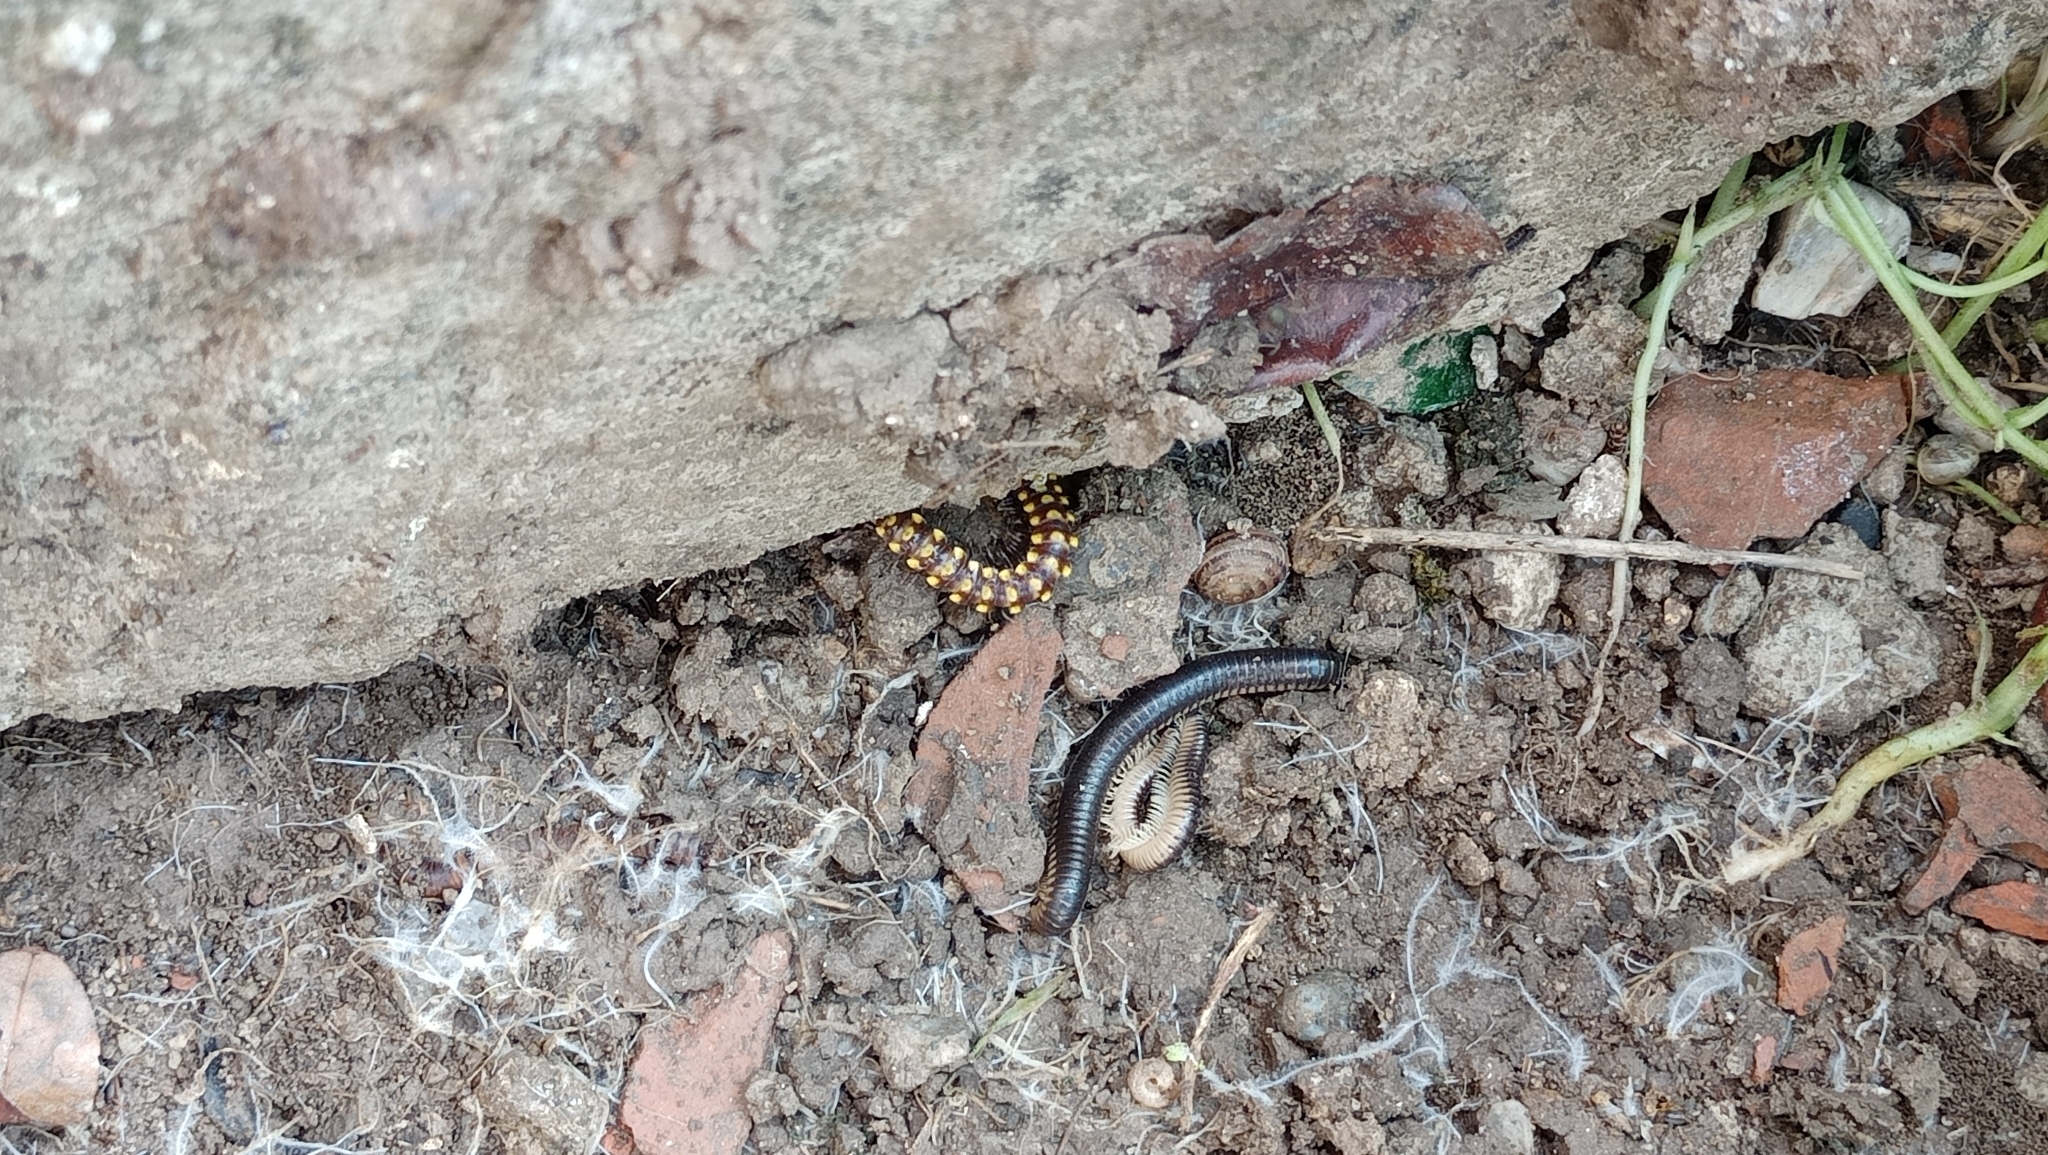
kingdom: Animalia
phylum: Arthropoda
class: Diplopoda
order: Polydesmida
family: Xystodesmidae
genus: Melaphe
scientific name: Melaphe vestita
